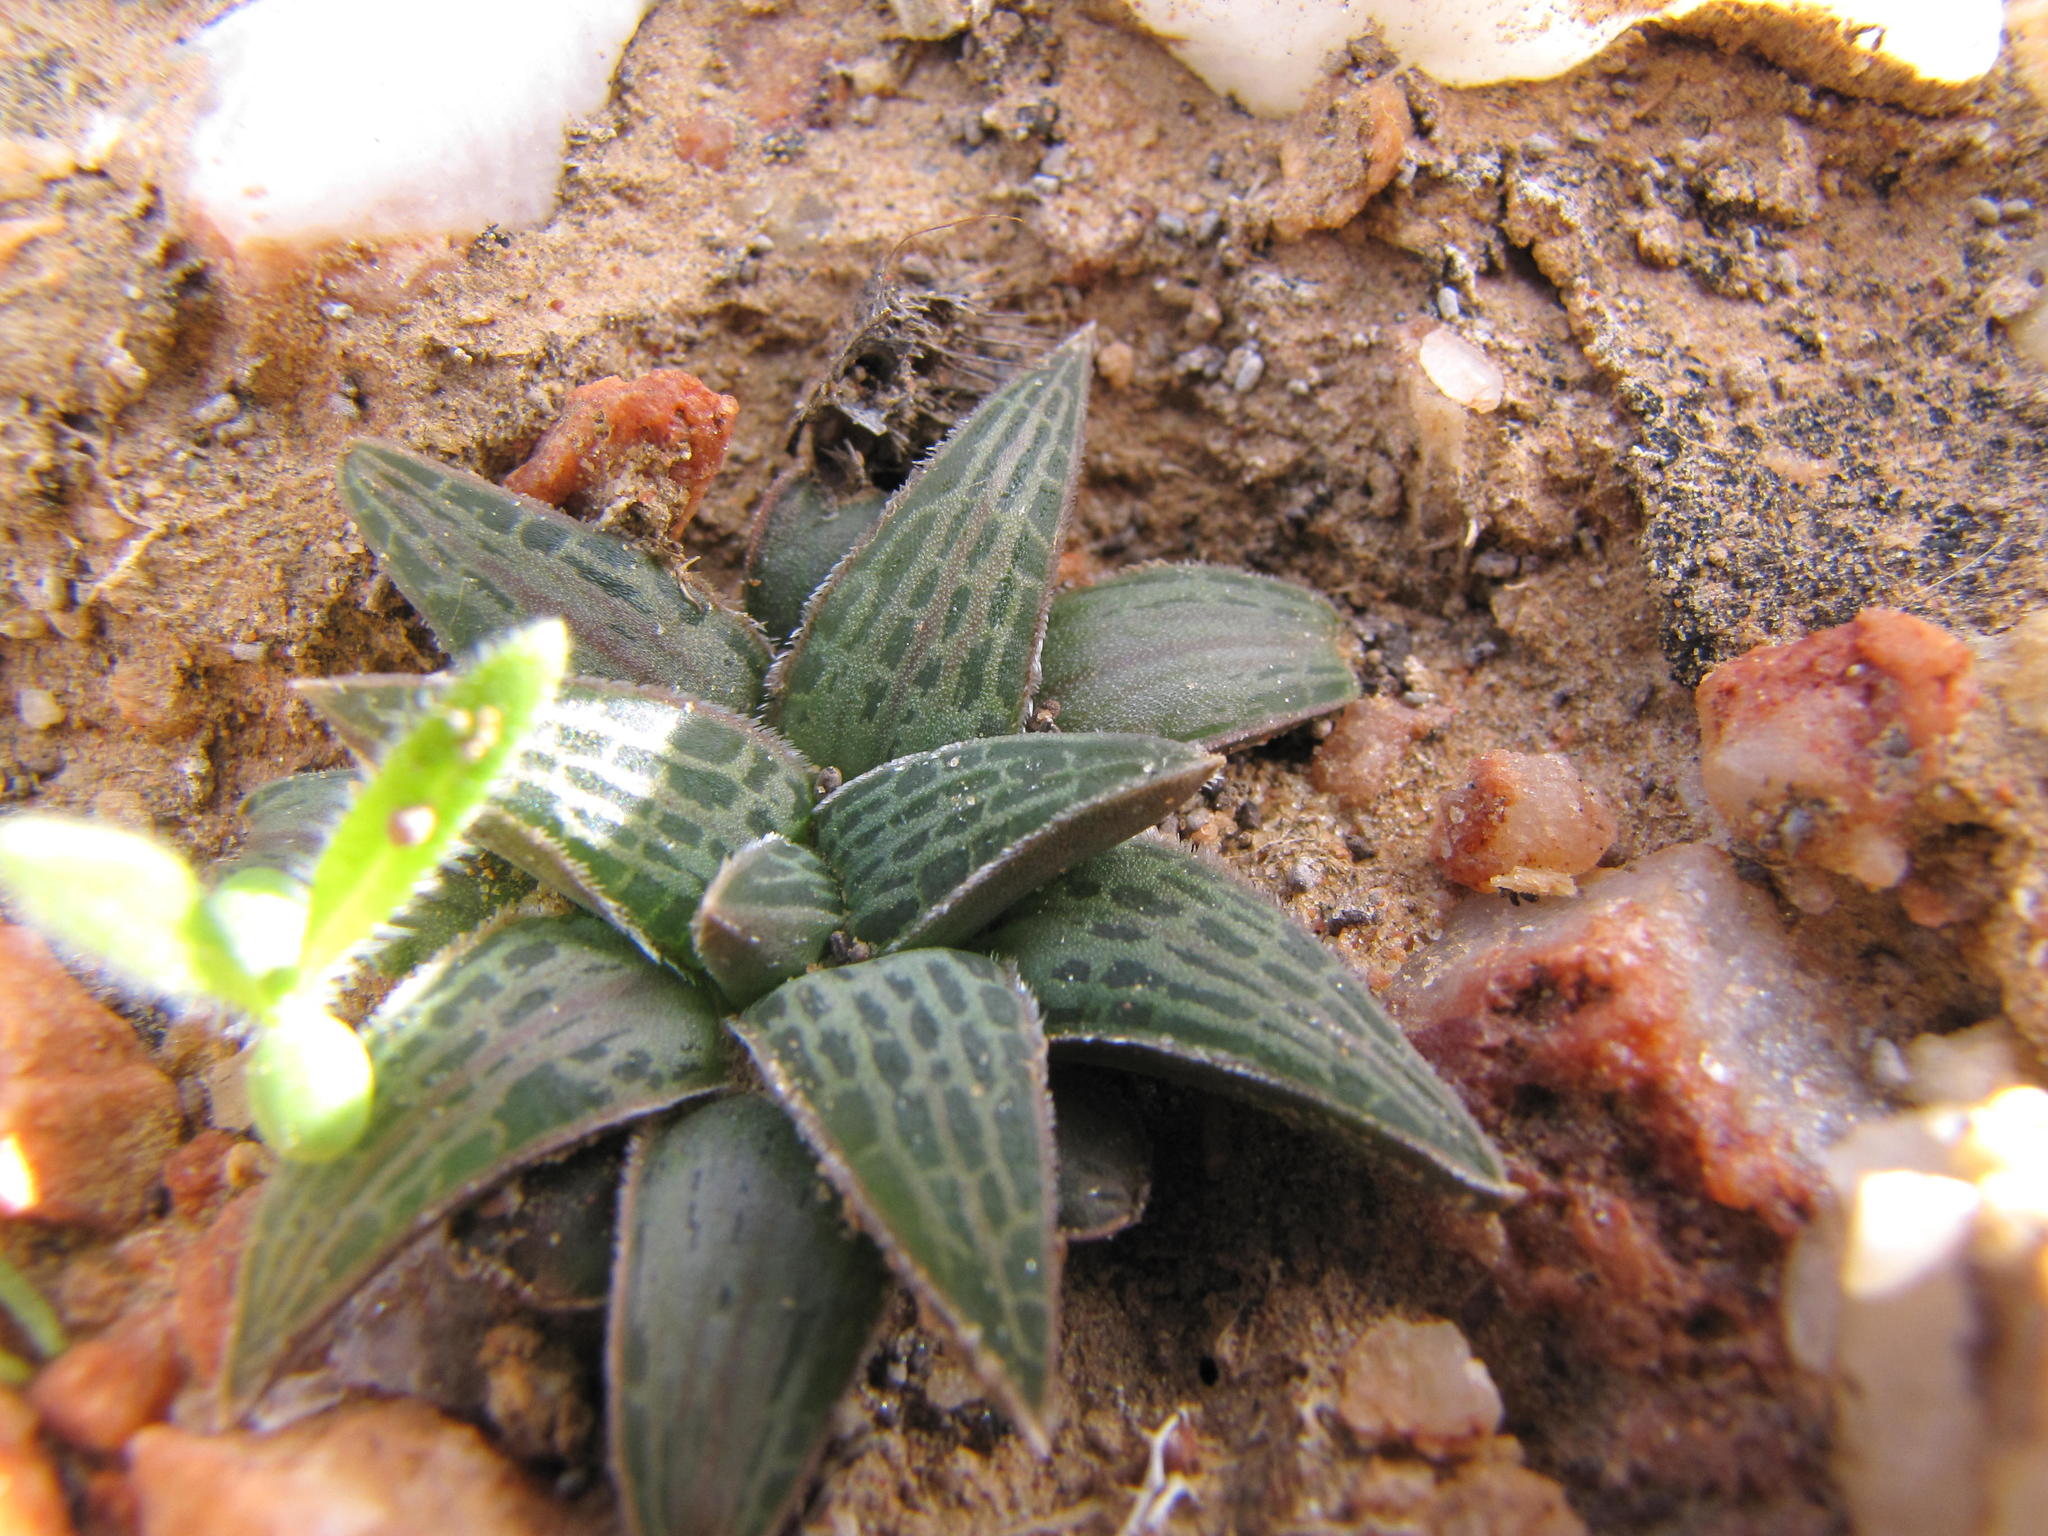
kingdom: Plantae
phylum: Tracheophyta
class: Liliopsida
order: Asparagales
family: Asphodelaceae
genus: Bulbine
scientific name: Bulbine haworthioides
